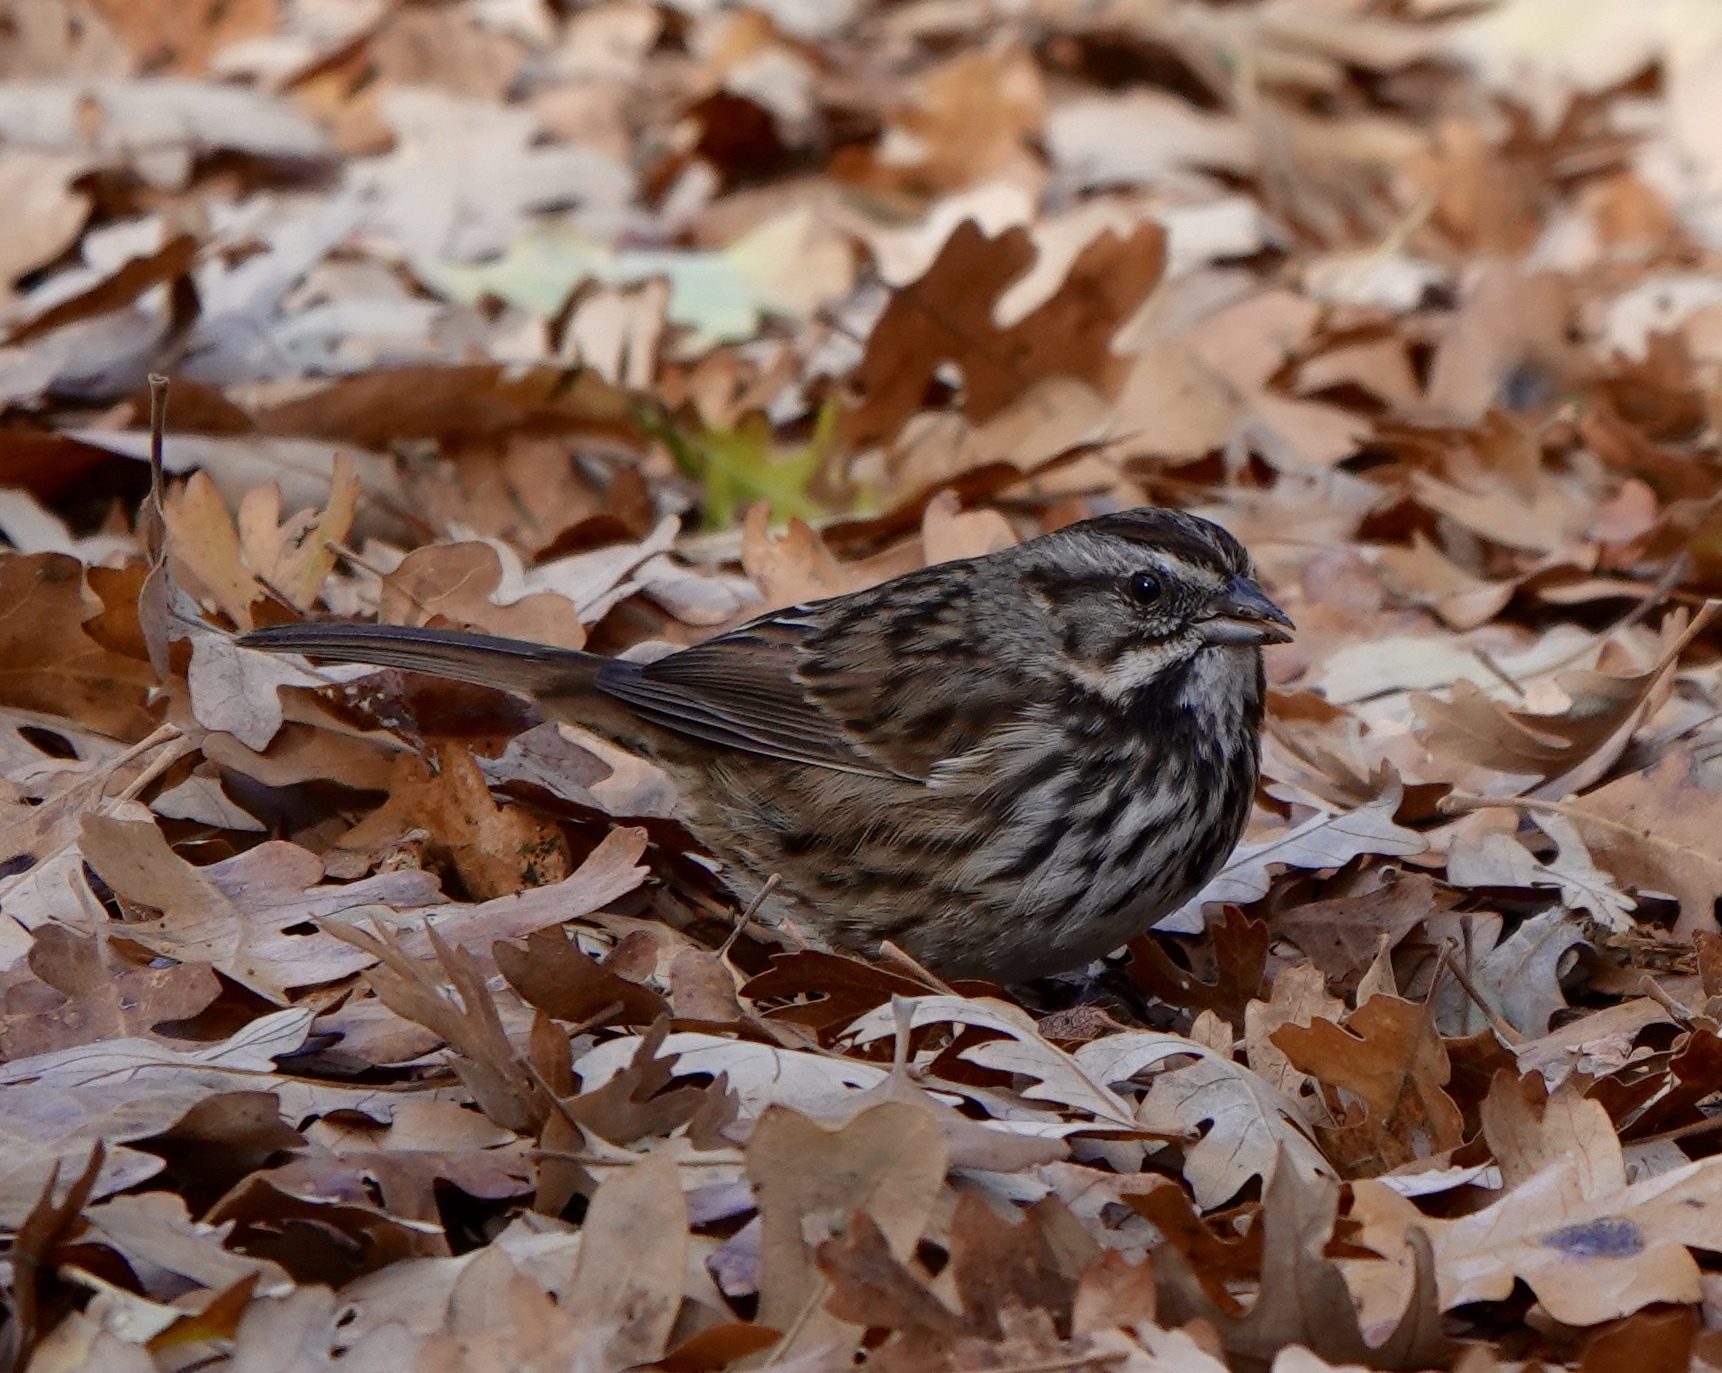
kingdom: Animalia
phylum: Chordata
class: Aves
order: Passeriformes
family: Passerellidae
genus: Melospiza
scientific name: Melospiza melodia
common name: Song sparrow
